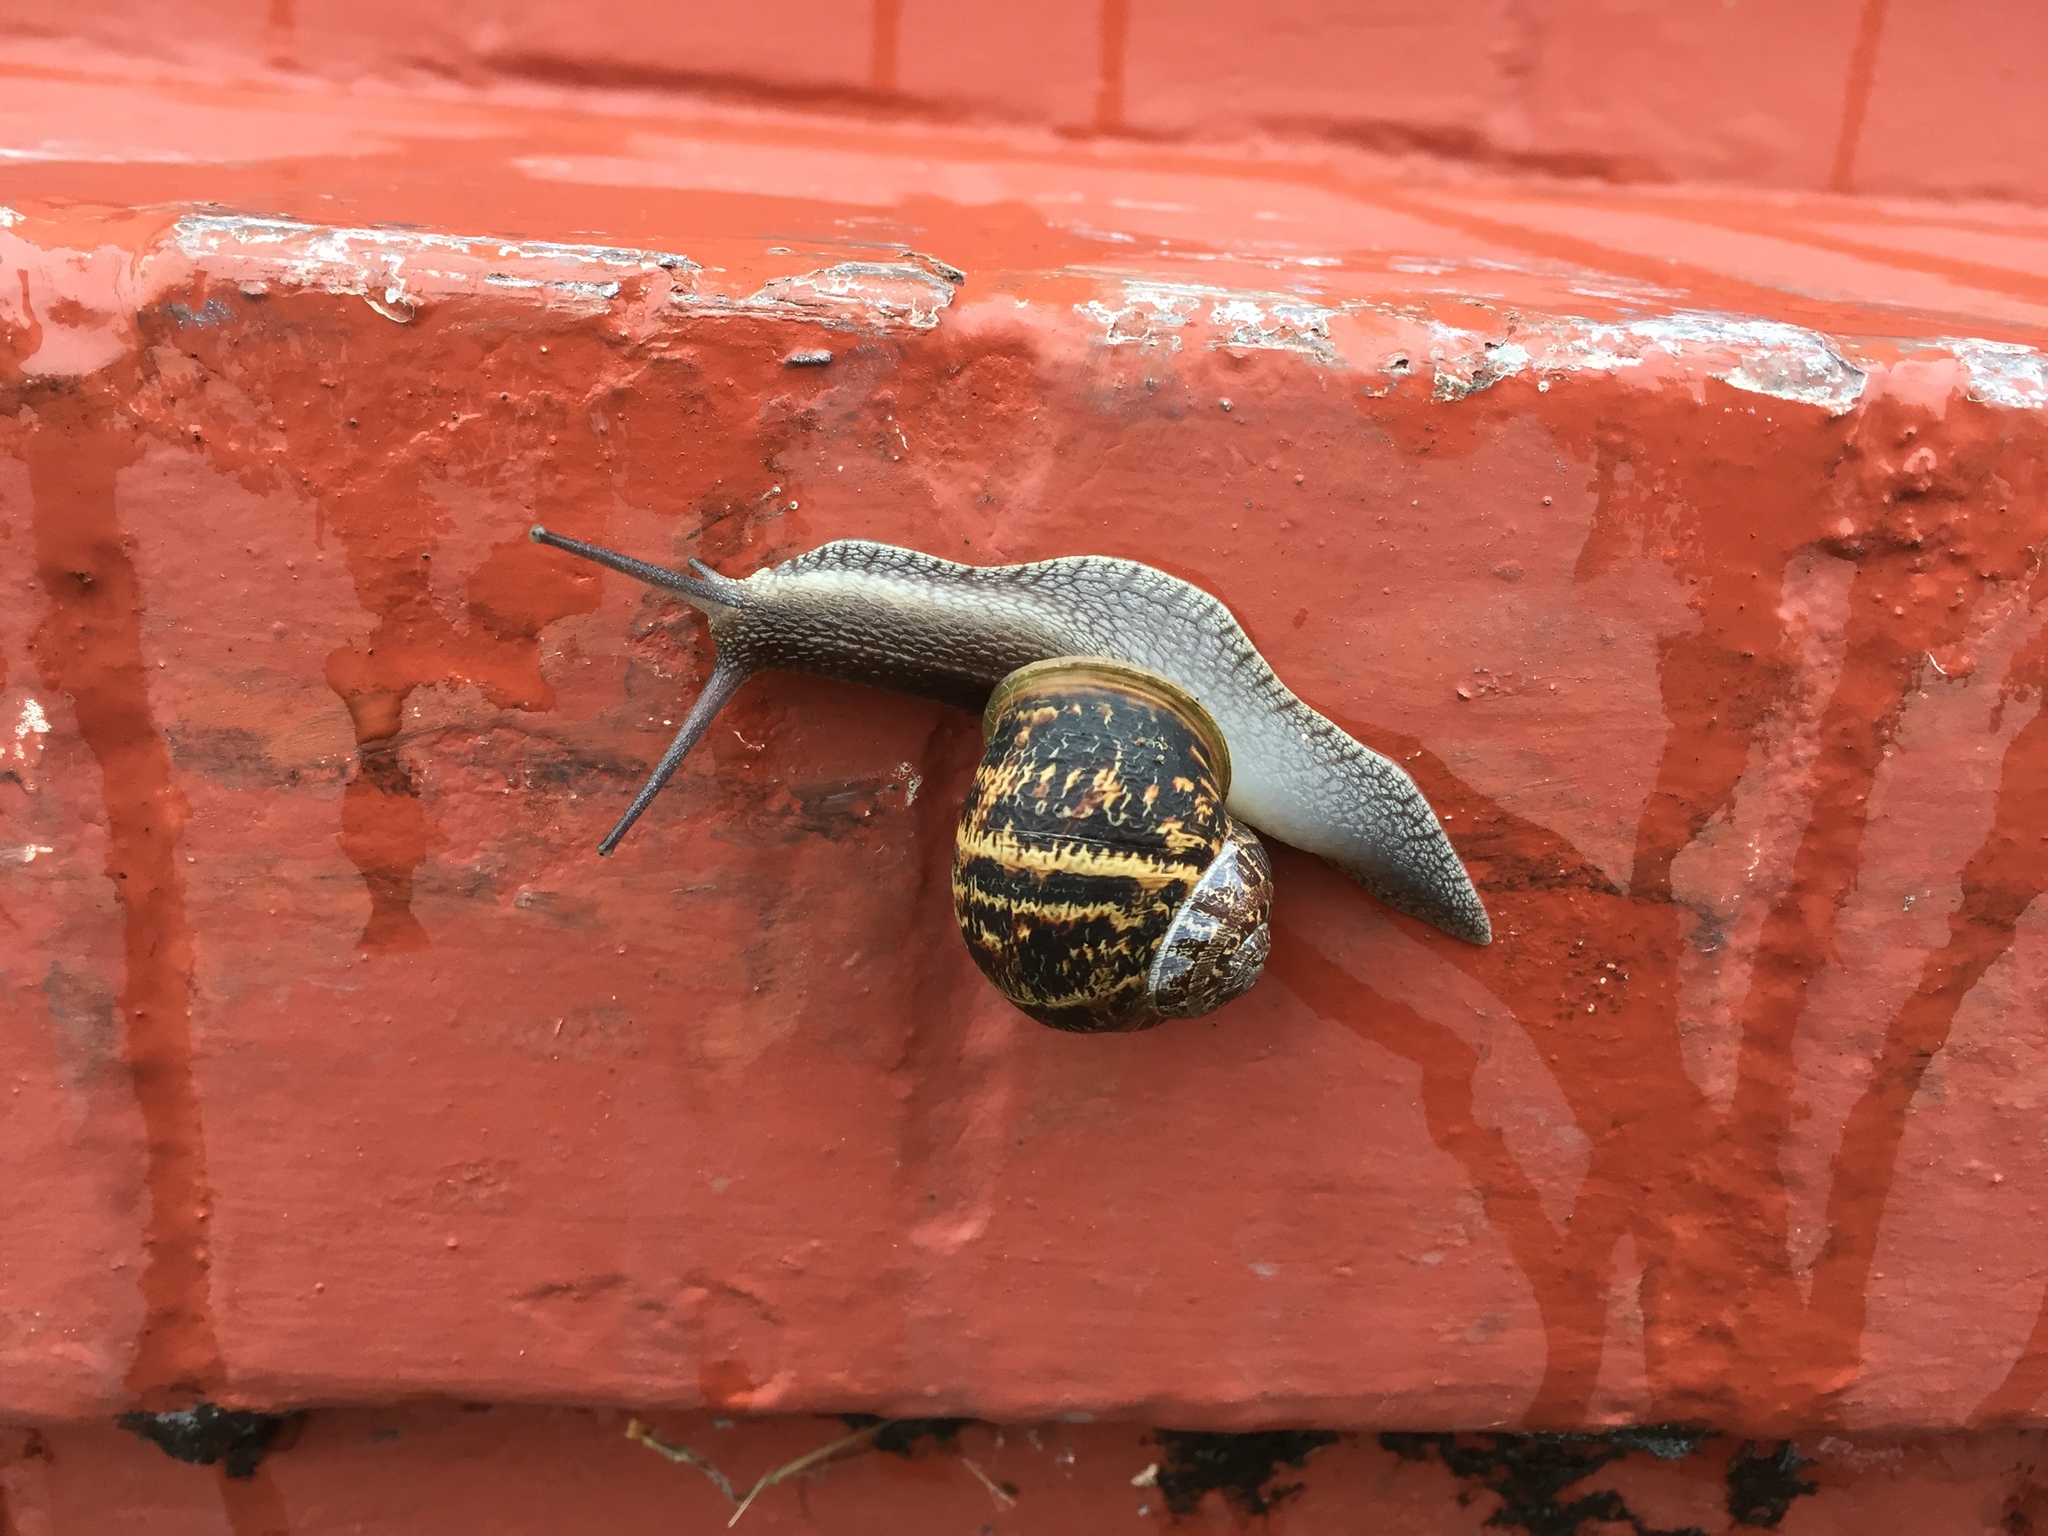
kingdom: Animalia
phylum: Mollusca
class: Gastropoda
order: Stylommatophora
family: Helicidae
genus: Cornu
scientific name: Cornu aspersum
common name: Brown garden snail
